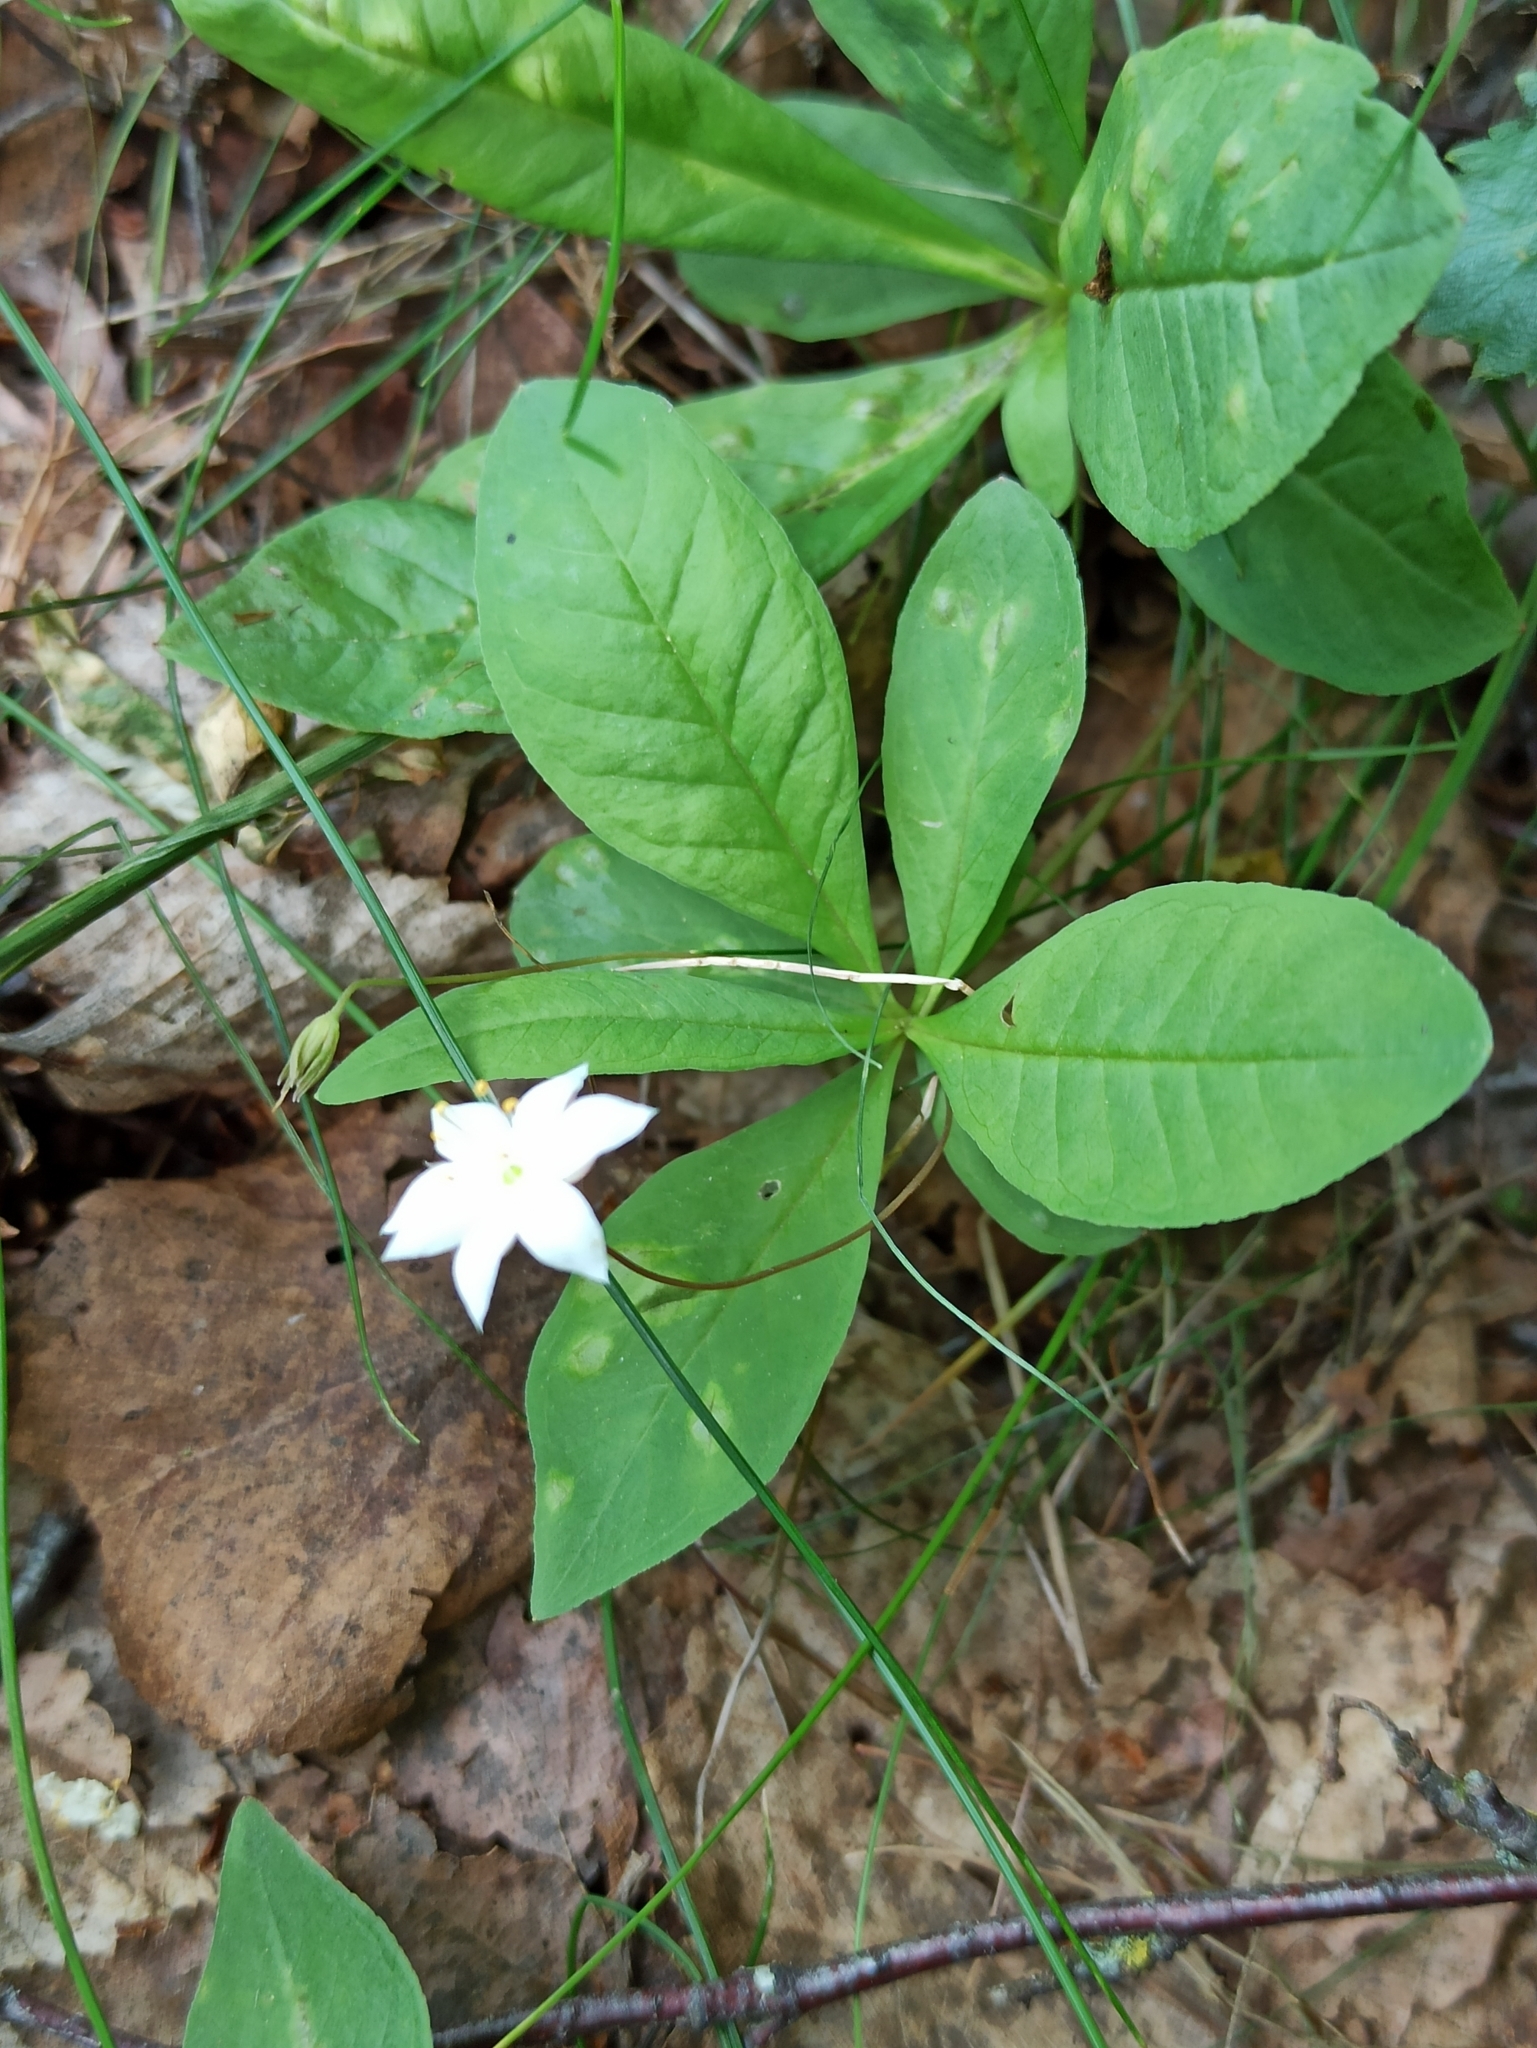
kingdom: Plantae
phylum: Tracheophyta
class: Magnoliopsida
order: Ericales
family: Primulaceae
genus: Lysimachia
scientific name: Lysimachia europaea
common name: Arctic starflower
